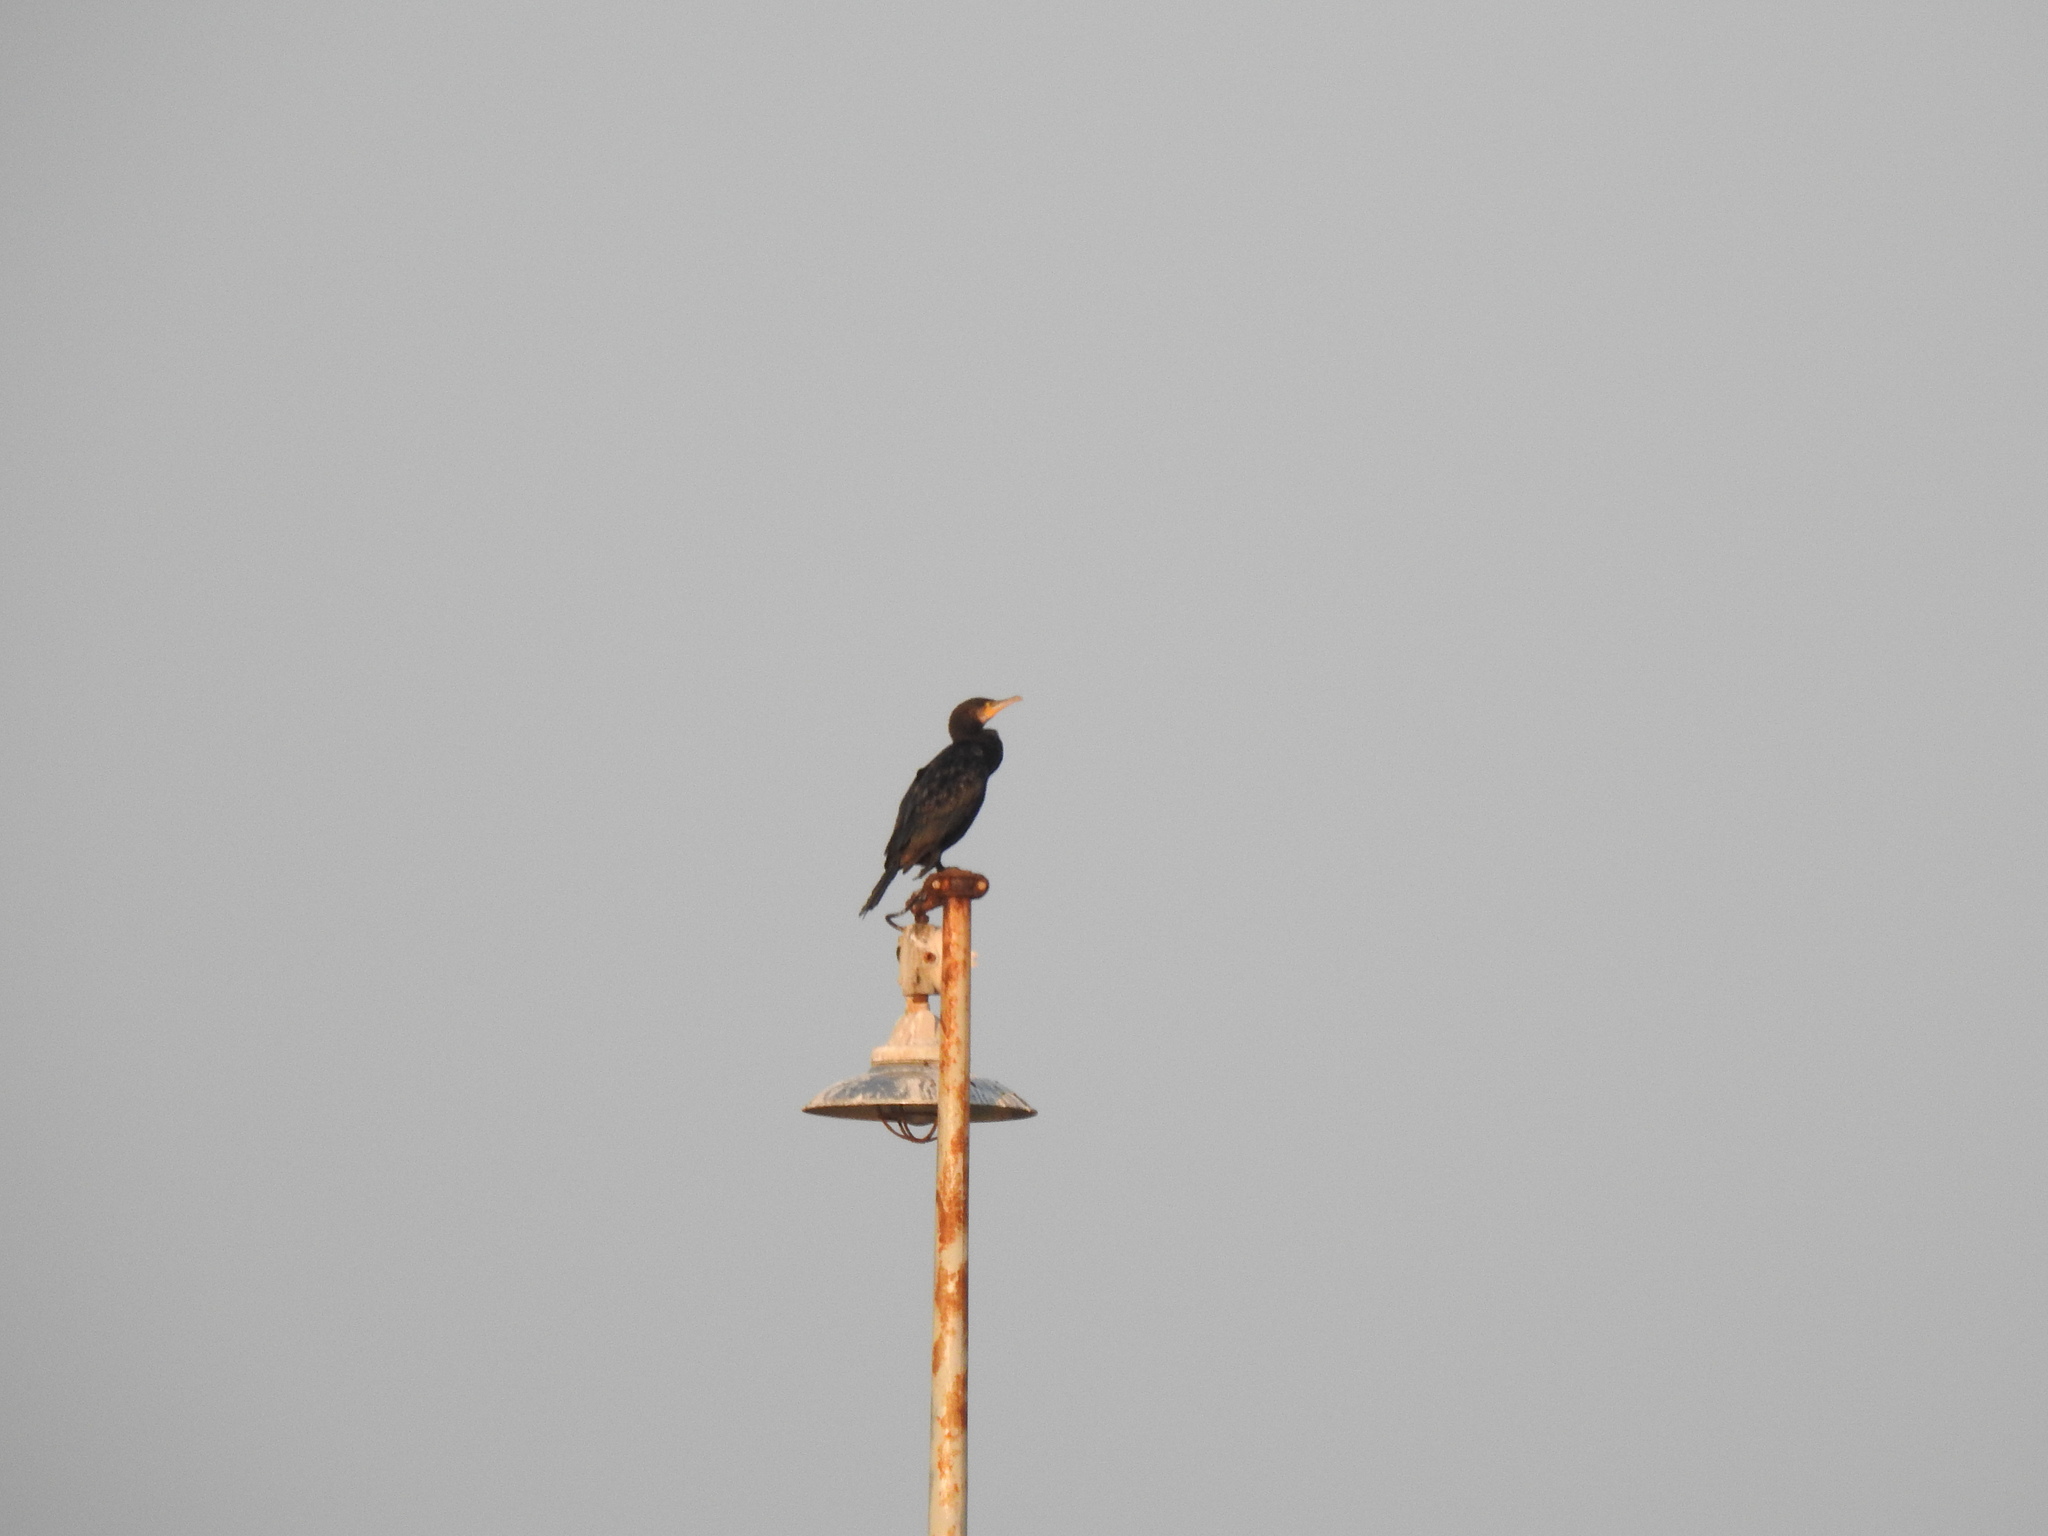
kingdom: Animalia
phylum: Chordata
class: Aves
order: Suliformes
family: Phalacrocoracidae
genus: Phalacrocorax
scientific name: Phalacrocorax carbo
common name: Great cormorant
